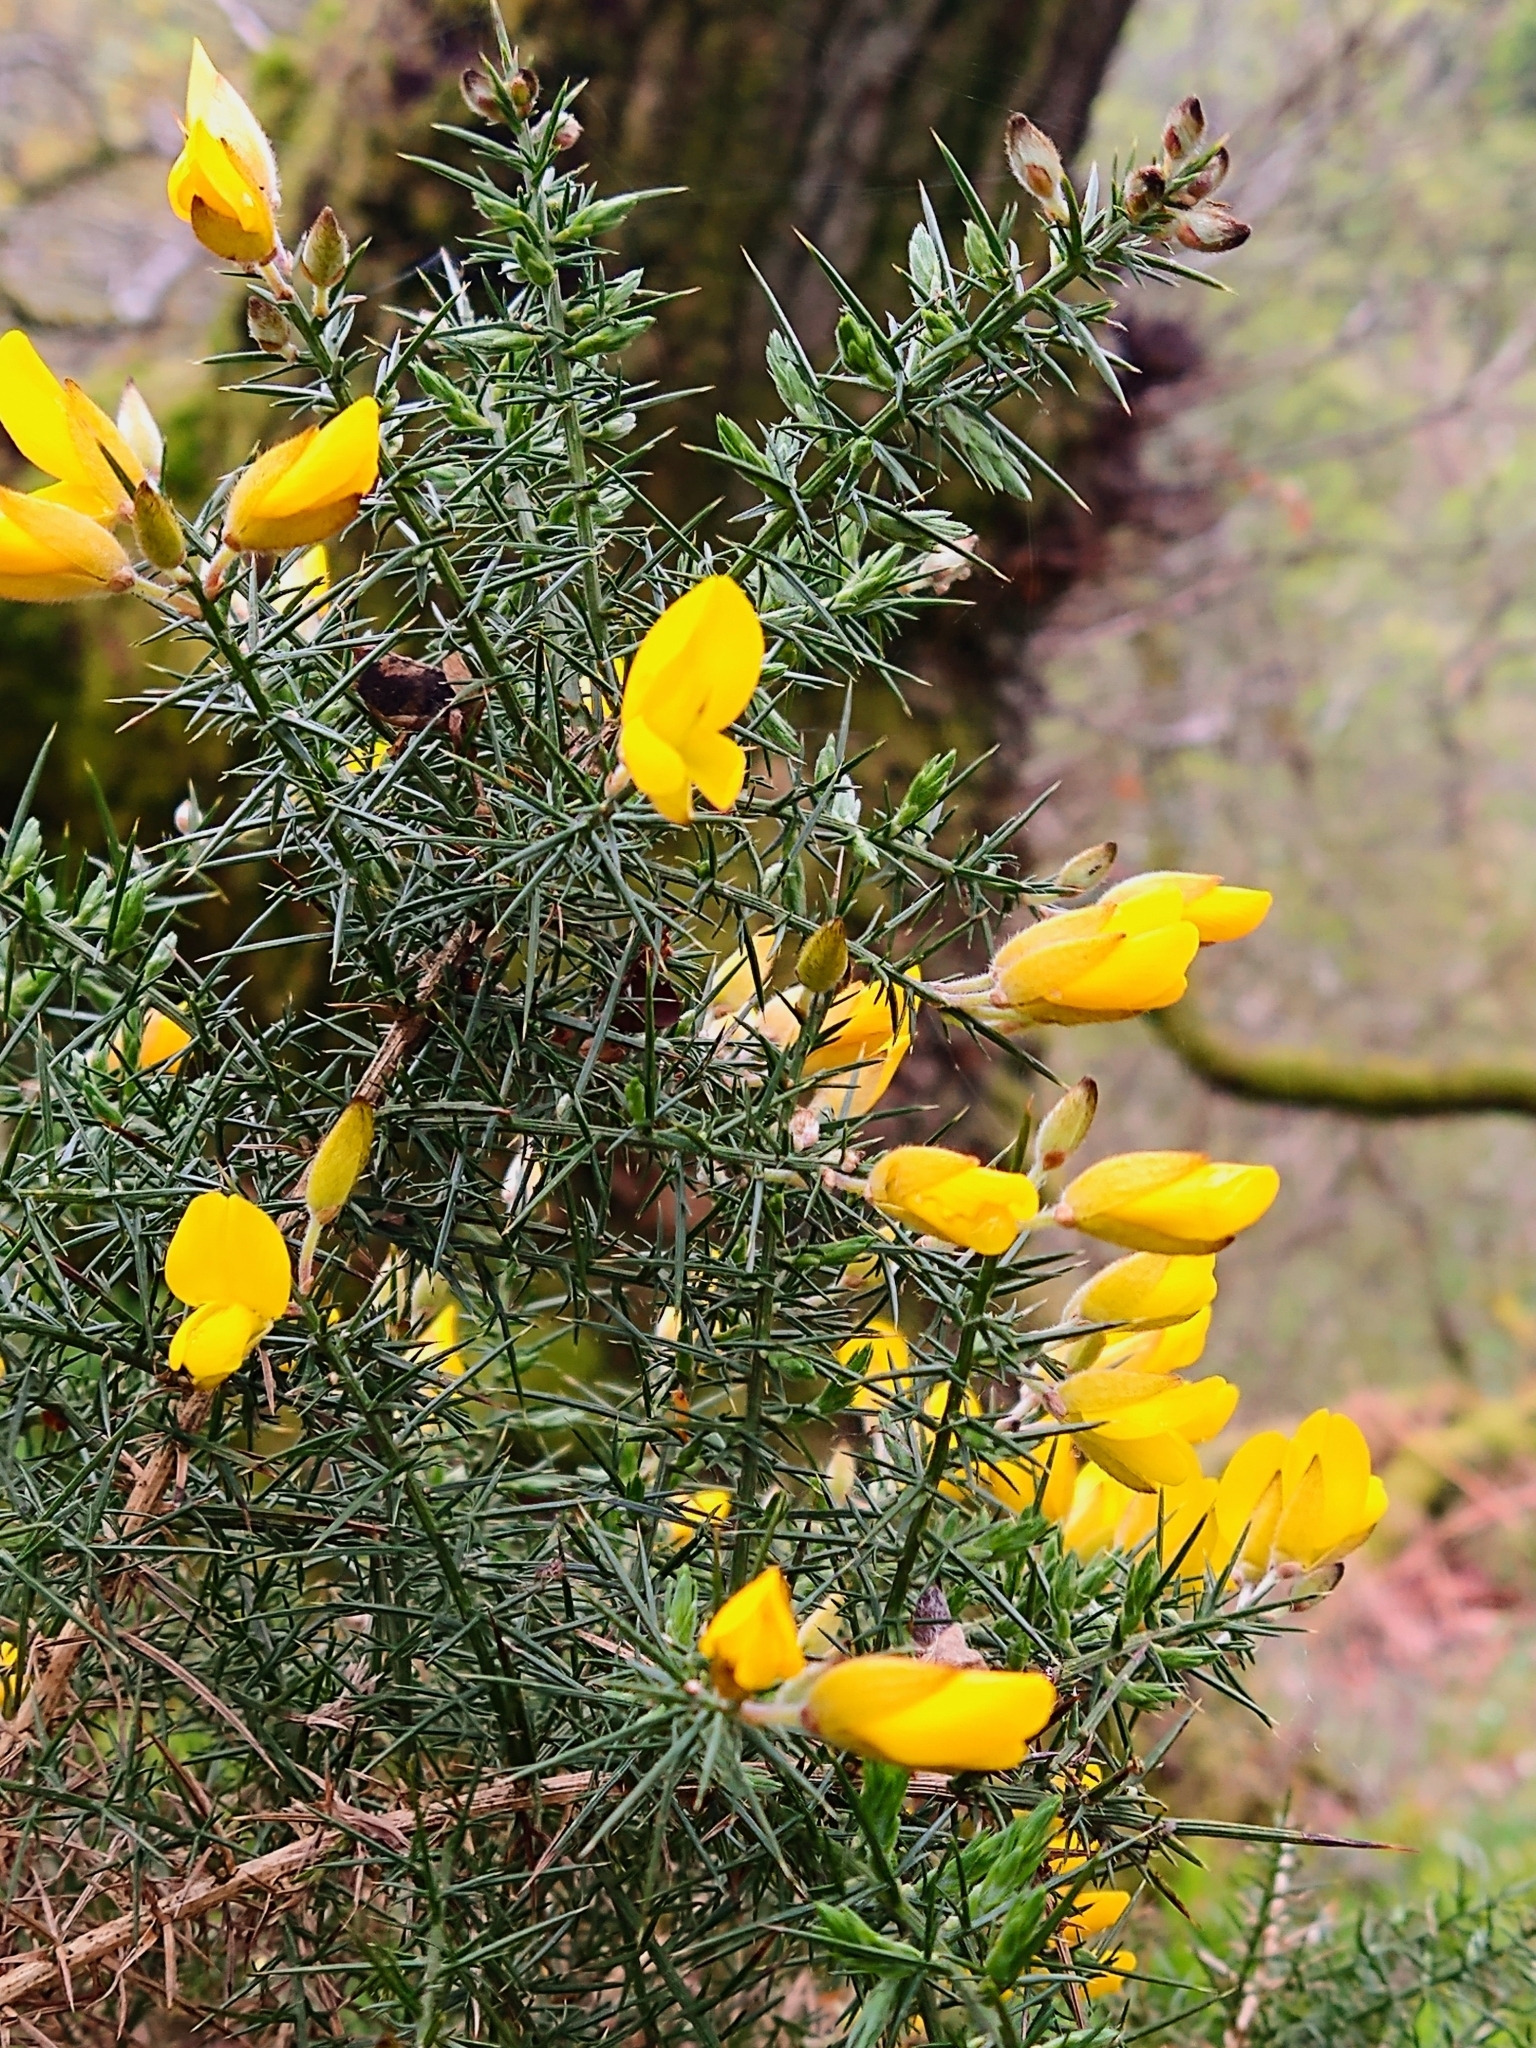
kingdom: Plantae
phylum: Tracheophyta
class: Magnoliopsida
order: Fabales
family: Fabaceae
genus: Ulex
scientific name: Ulex europaeus
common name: Common gorse
